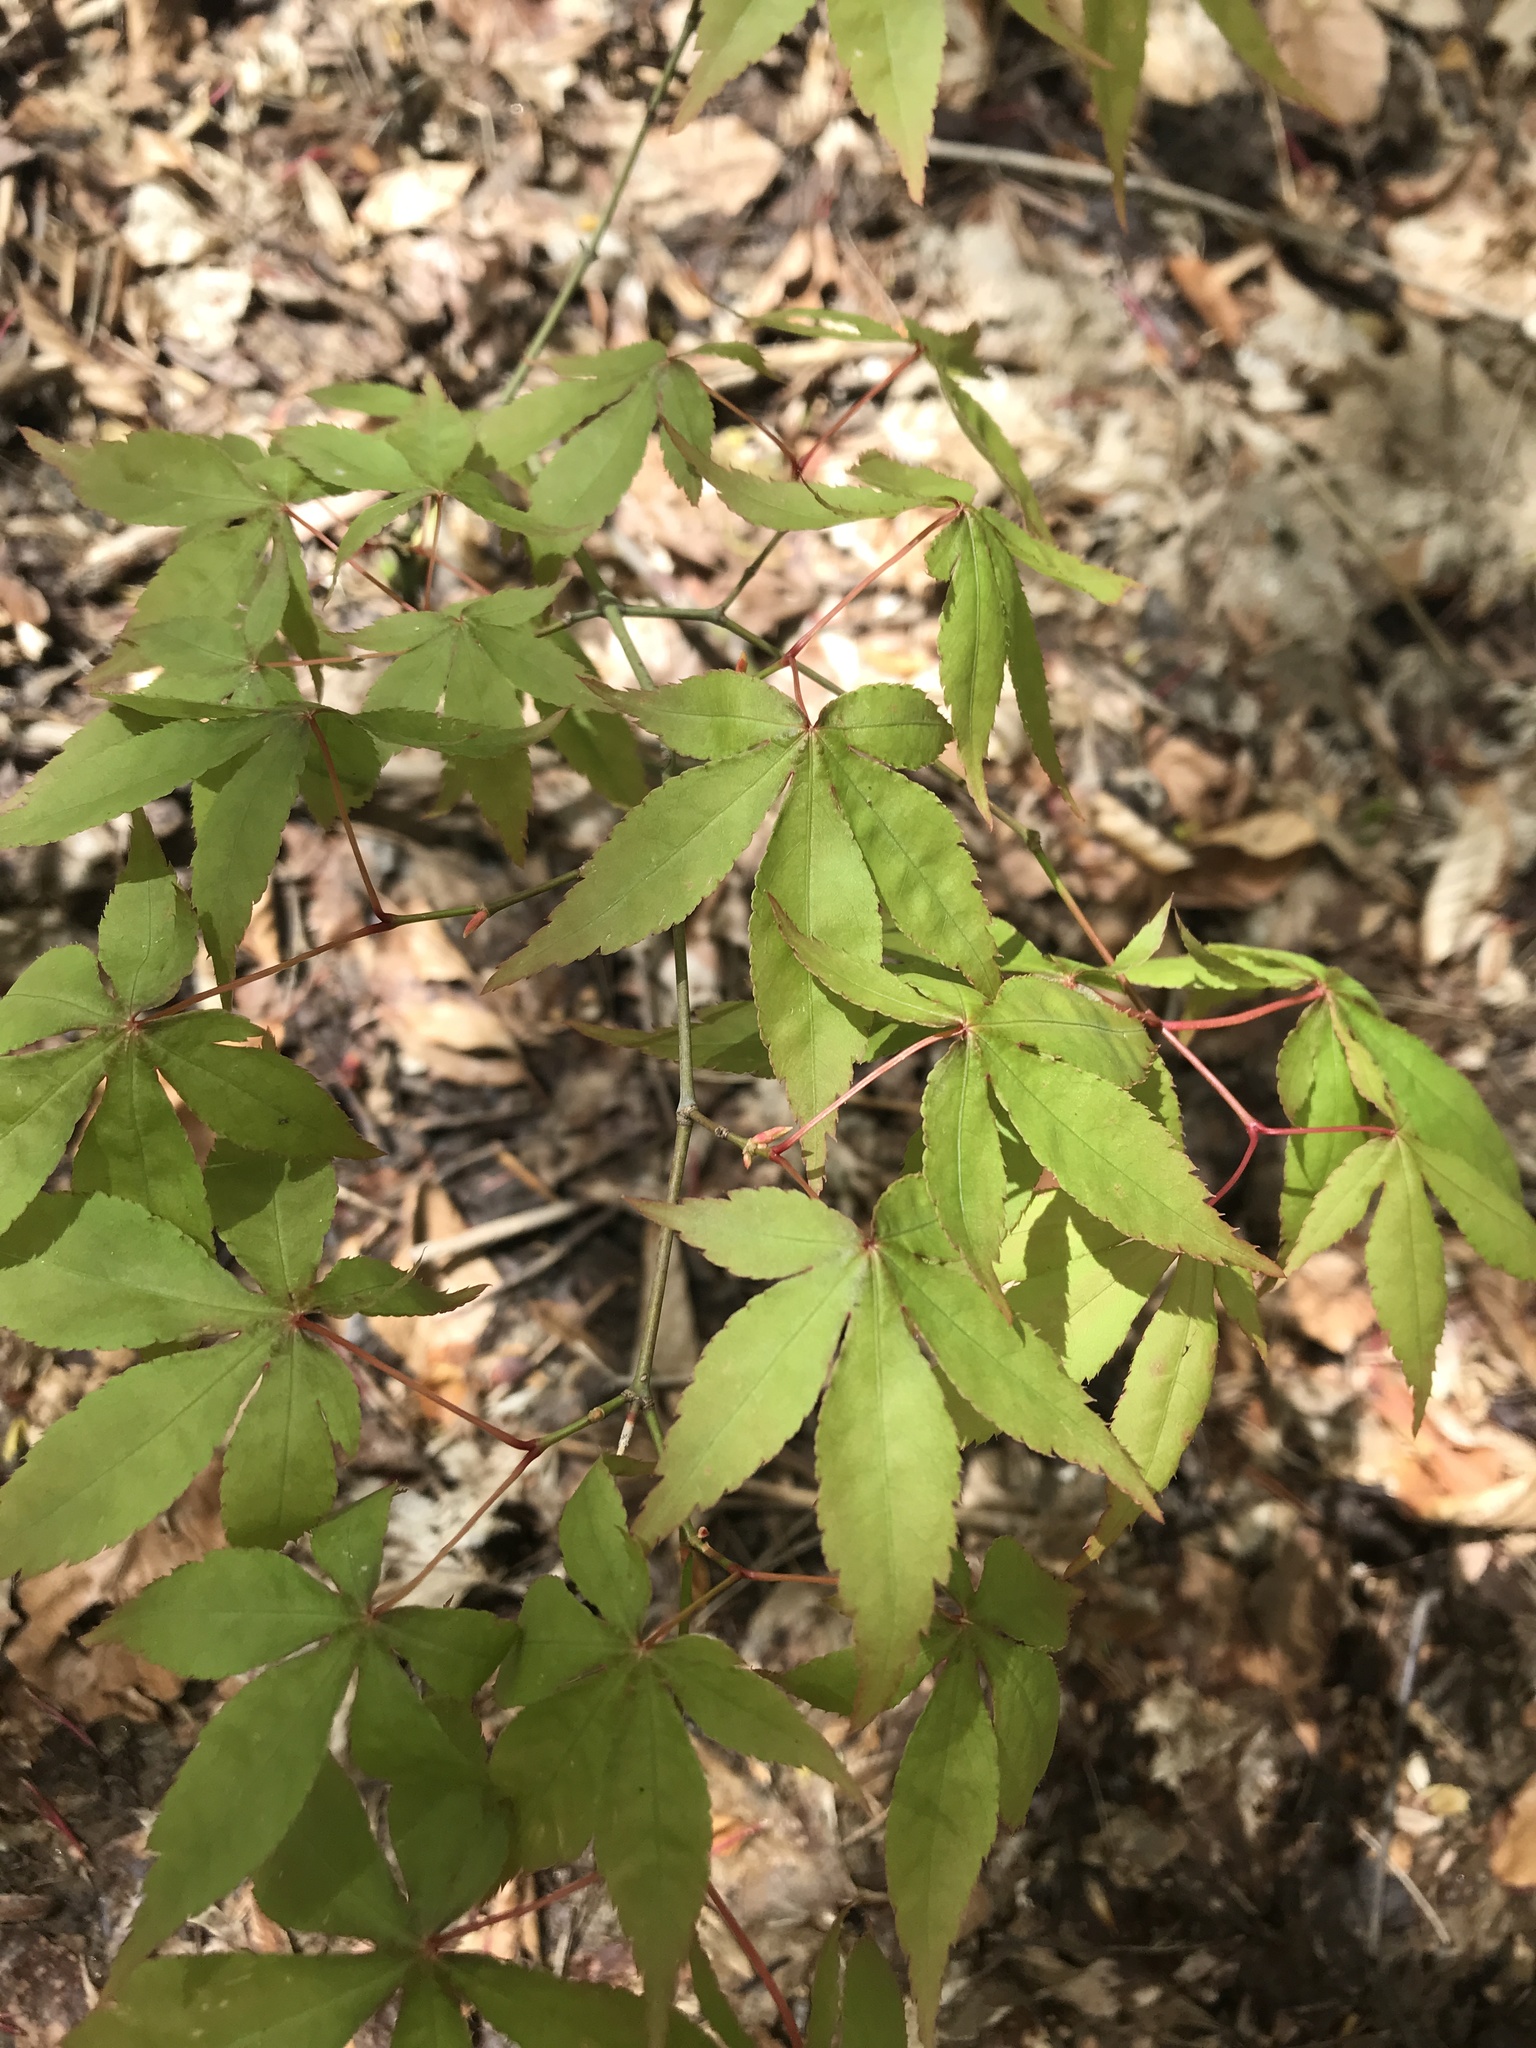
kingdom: Plantae
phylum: Tracheophyta
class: Magnoliopsida
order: Sapindales
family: Sapindaceae
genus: Acer
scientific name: Acer palmatum
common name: Japanese maple
